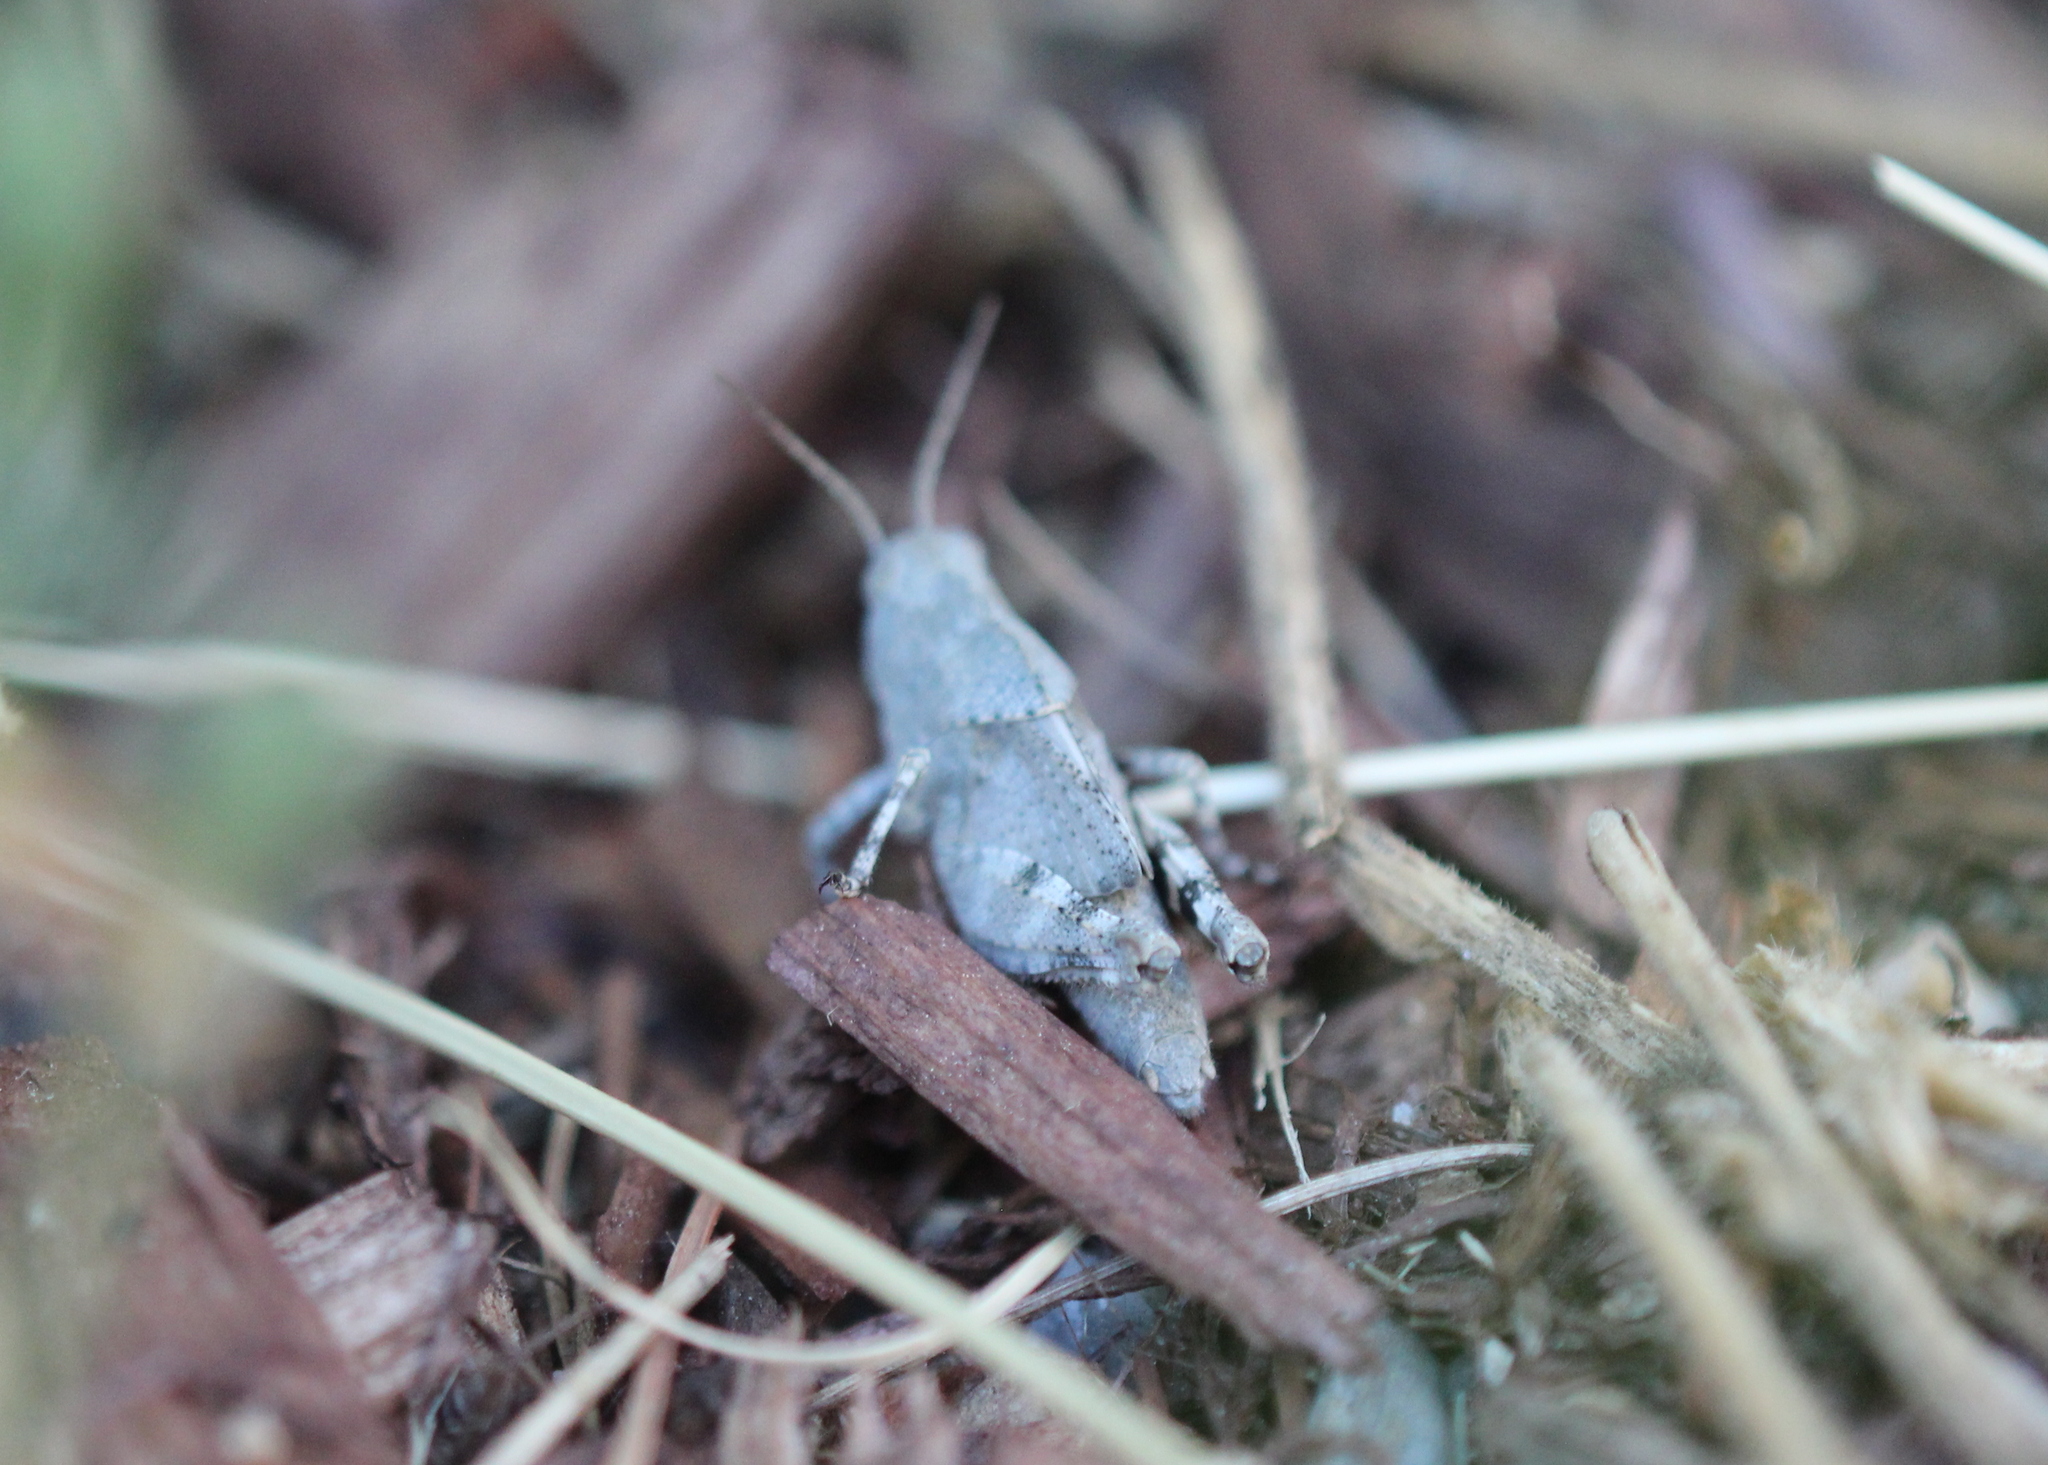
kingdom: Animalia
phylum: Arthropoda
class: Insecta
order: Orthoptera
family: Acrididae
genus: Dissosteira
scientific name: Dissosteira carolina
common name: Carolina grasshopper
